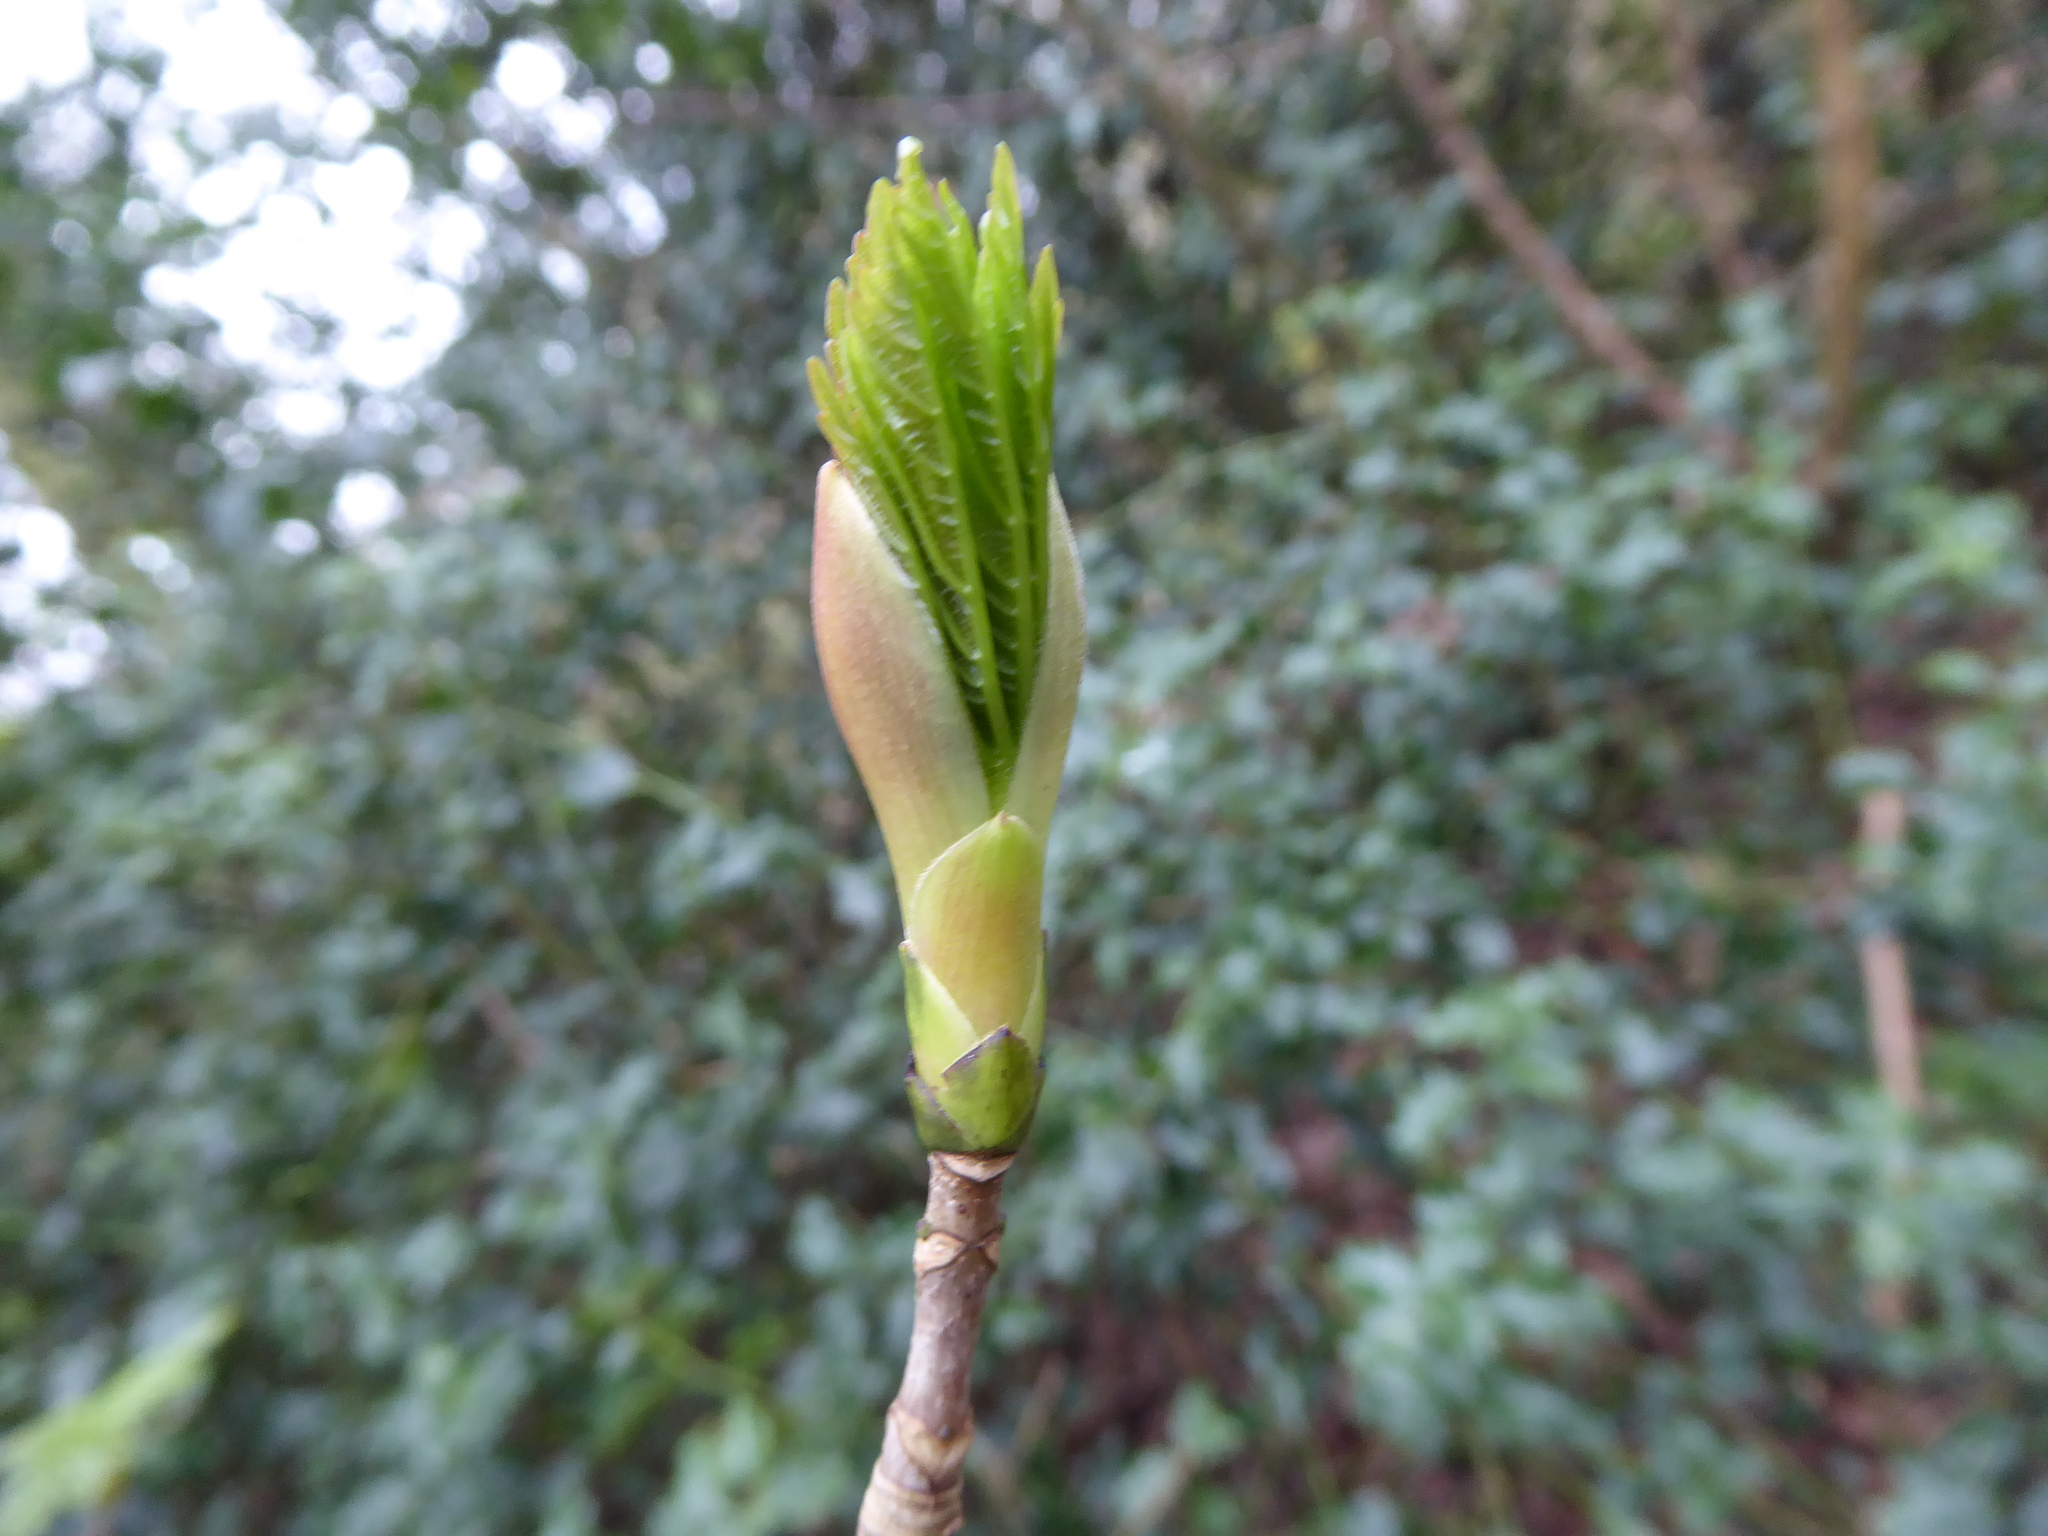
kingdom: Plantae
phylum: Tracheophyta
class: Magnoliopsida
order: Sapindales
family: Sapindaceae
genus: Acer
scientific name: Acer pseudoplatanus
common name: Sycamore
